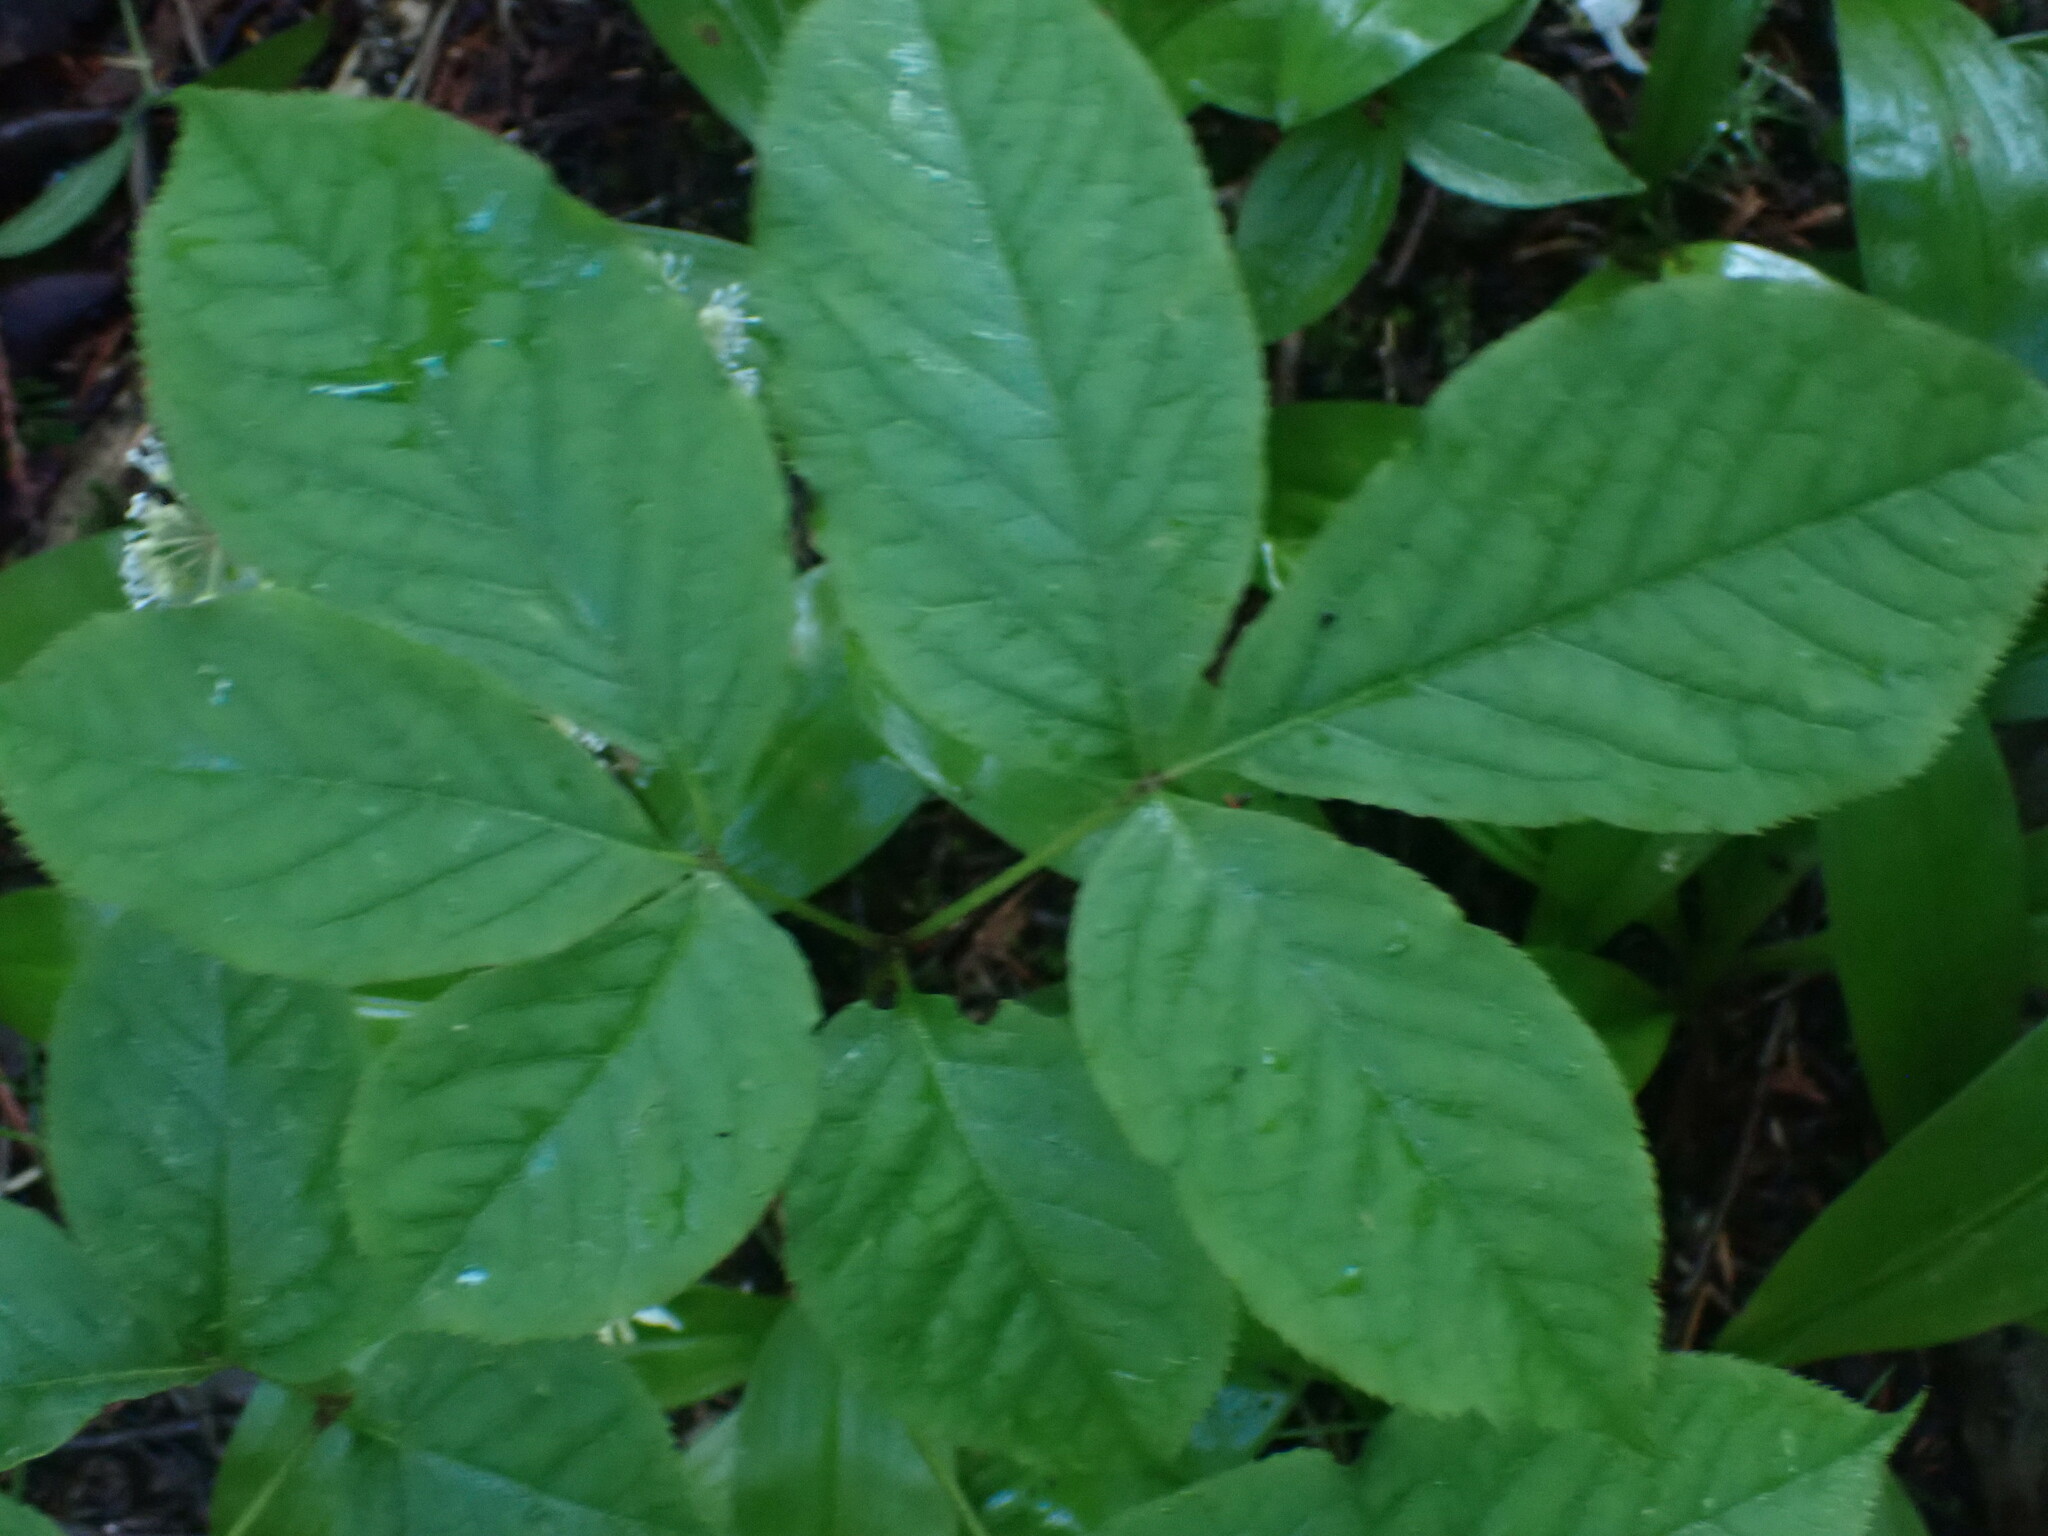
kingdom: Plantae
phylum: Tracheophyta
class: Magnoliopsida
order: Apiales
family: Araliaceae
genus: Aralia
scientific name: Aralia nudicaulis
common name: Wild sarsaparilla
